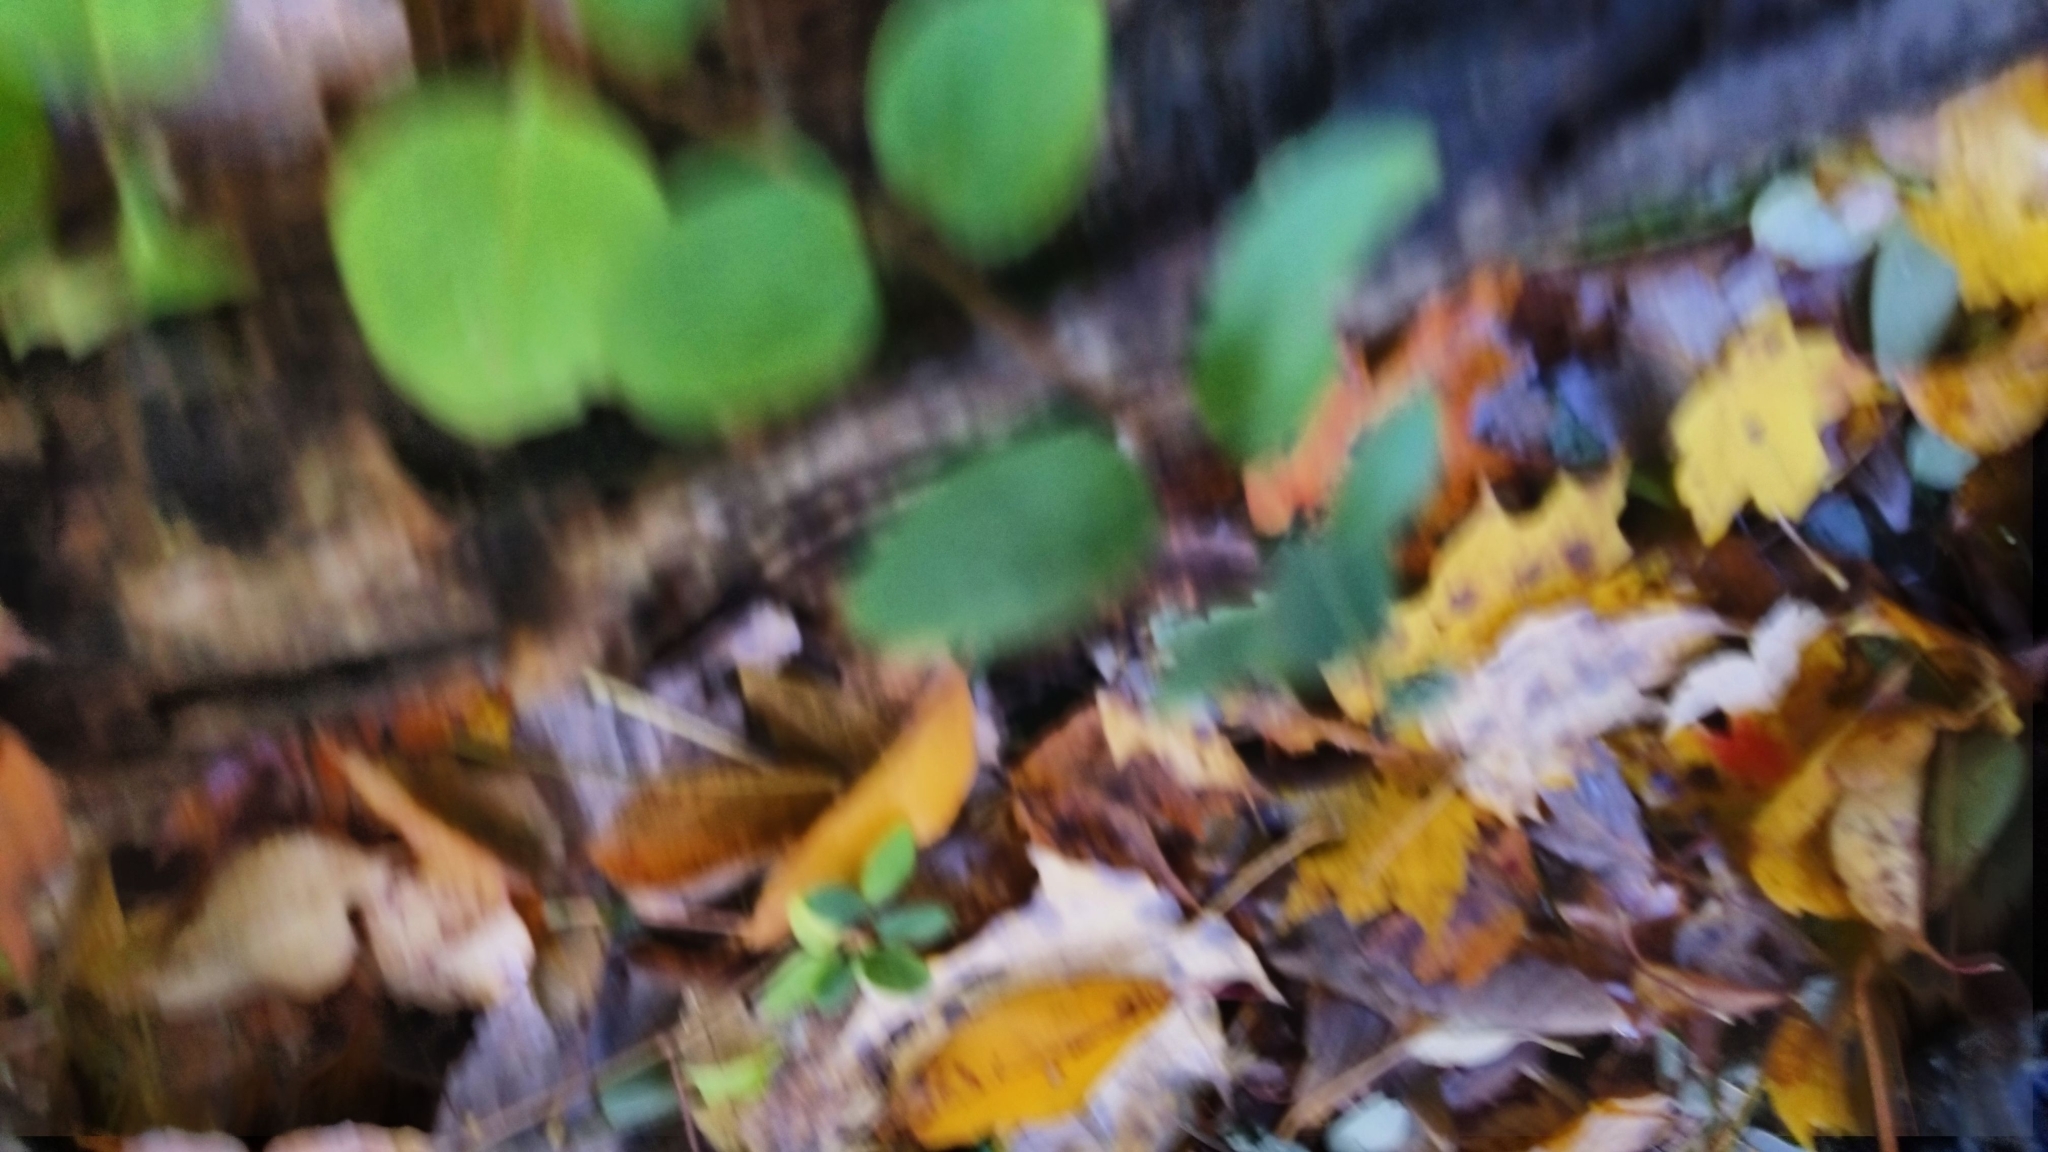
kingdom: Plantae
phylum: Tracheophyta
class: Magnoliopsida
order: Dipsacales
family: Caprifoliaceae
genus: Lonicera
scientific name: Lonicera maackii
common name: Amur honeysuckle
